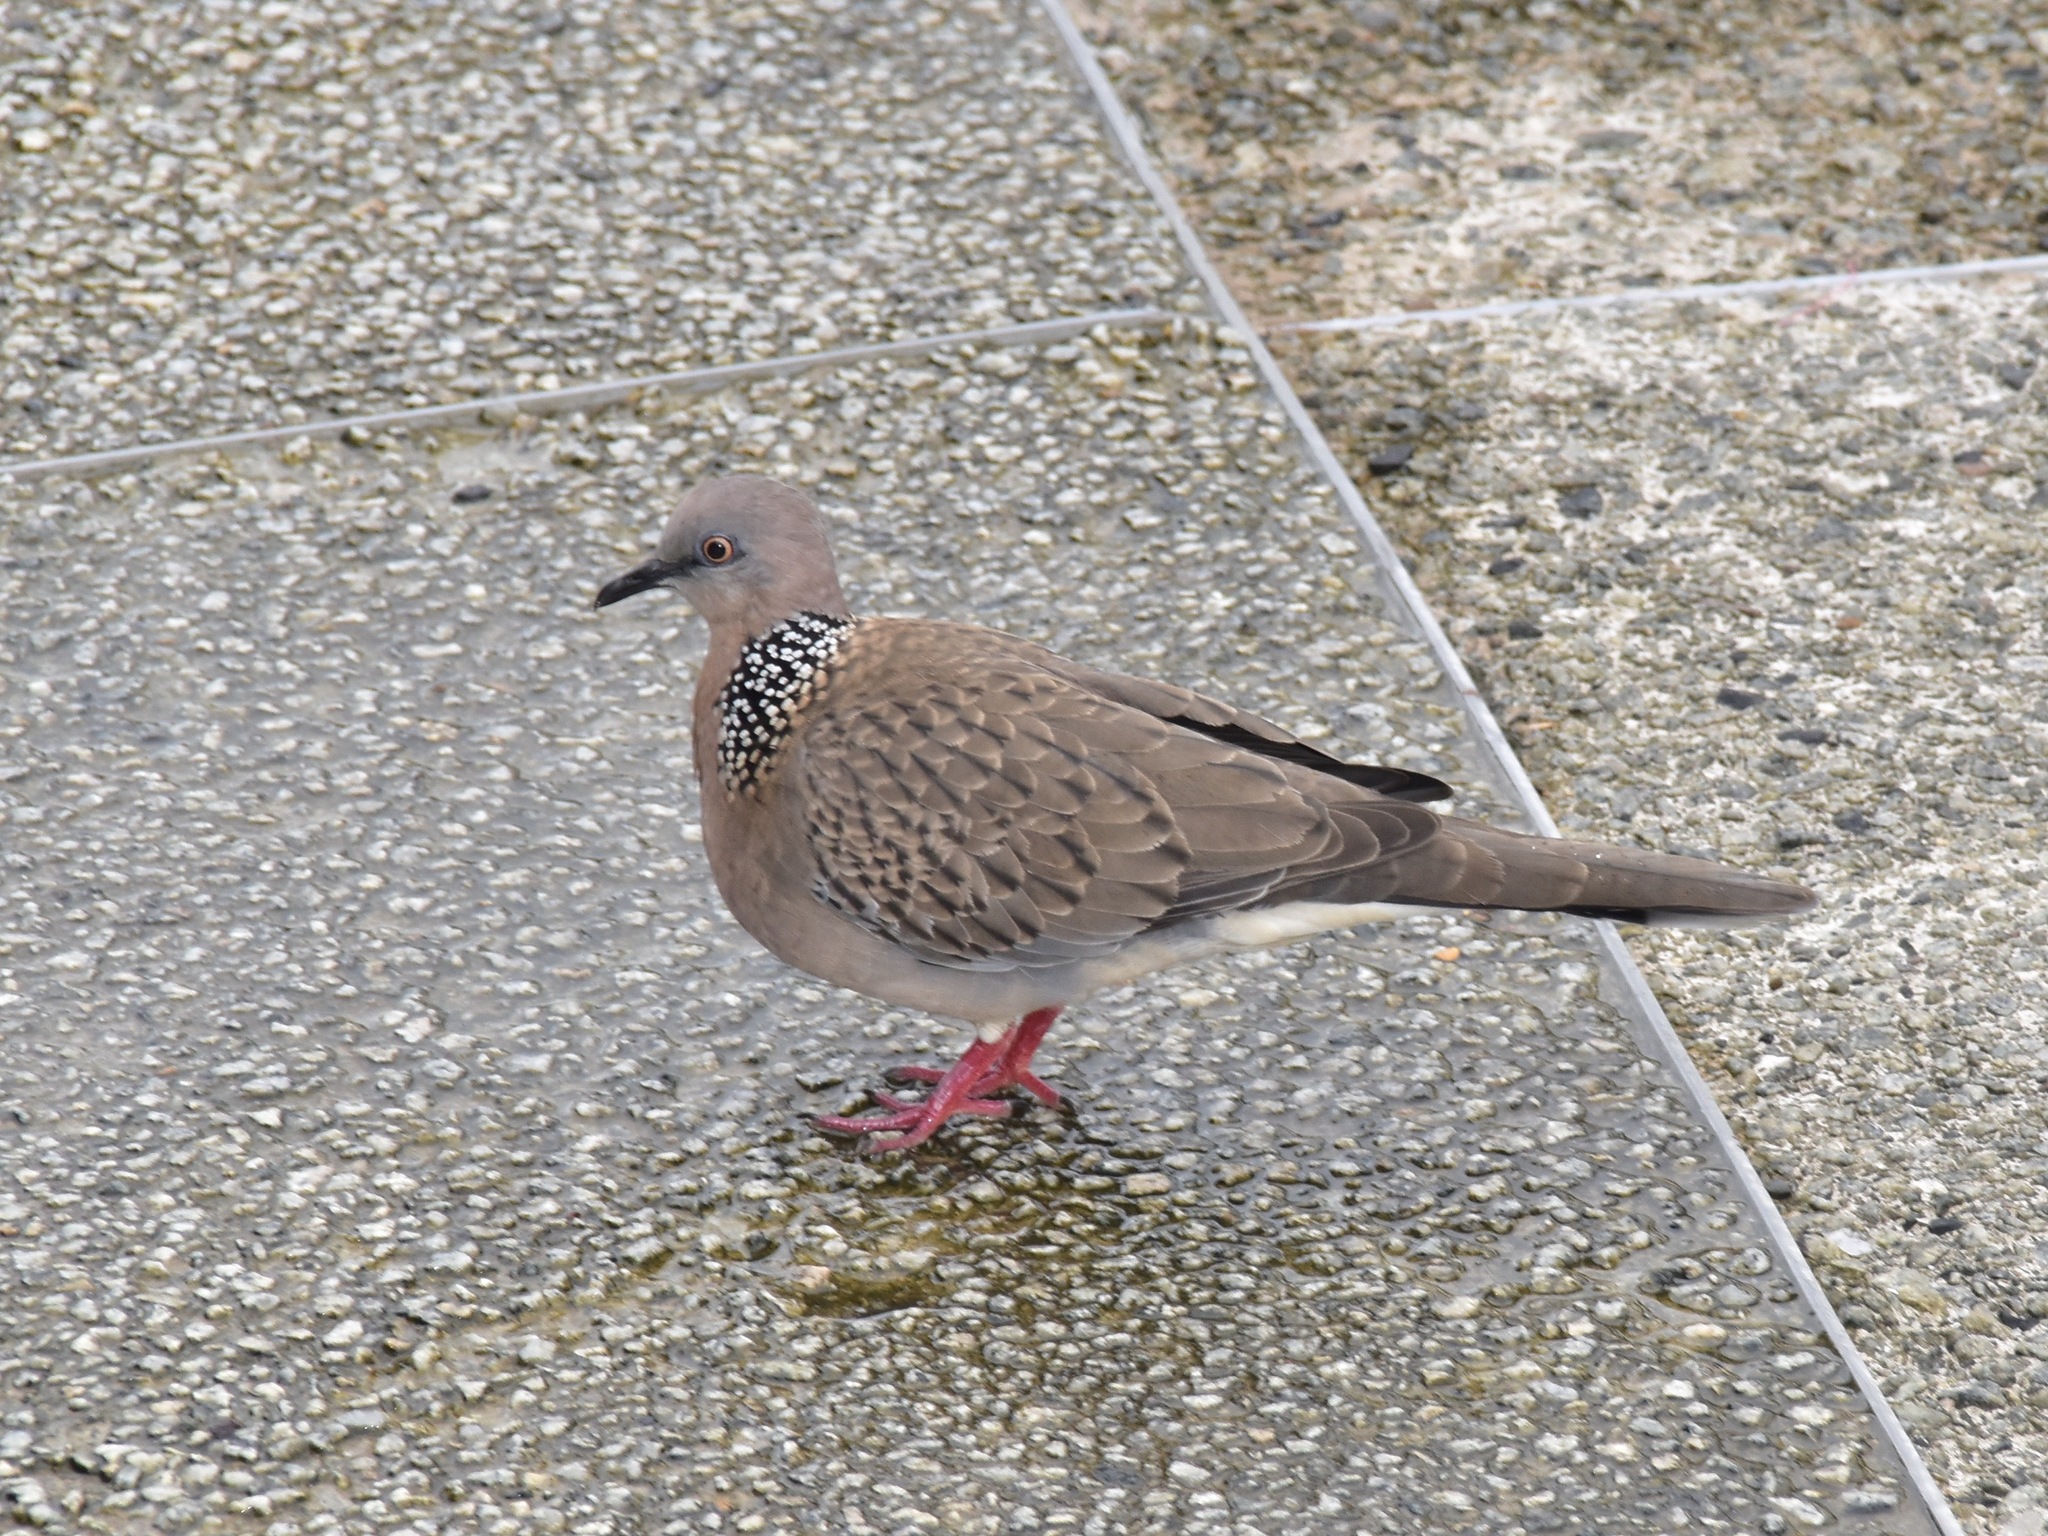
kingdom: Animalia
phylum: Chordata
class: Aves
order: Columbiformes
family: Columbidae
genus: Spilopelia
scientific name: Spilopelia chinensis
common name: Spotted dove
